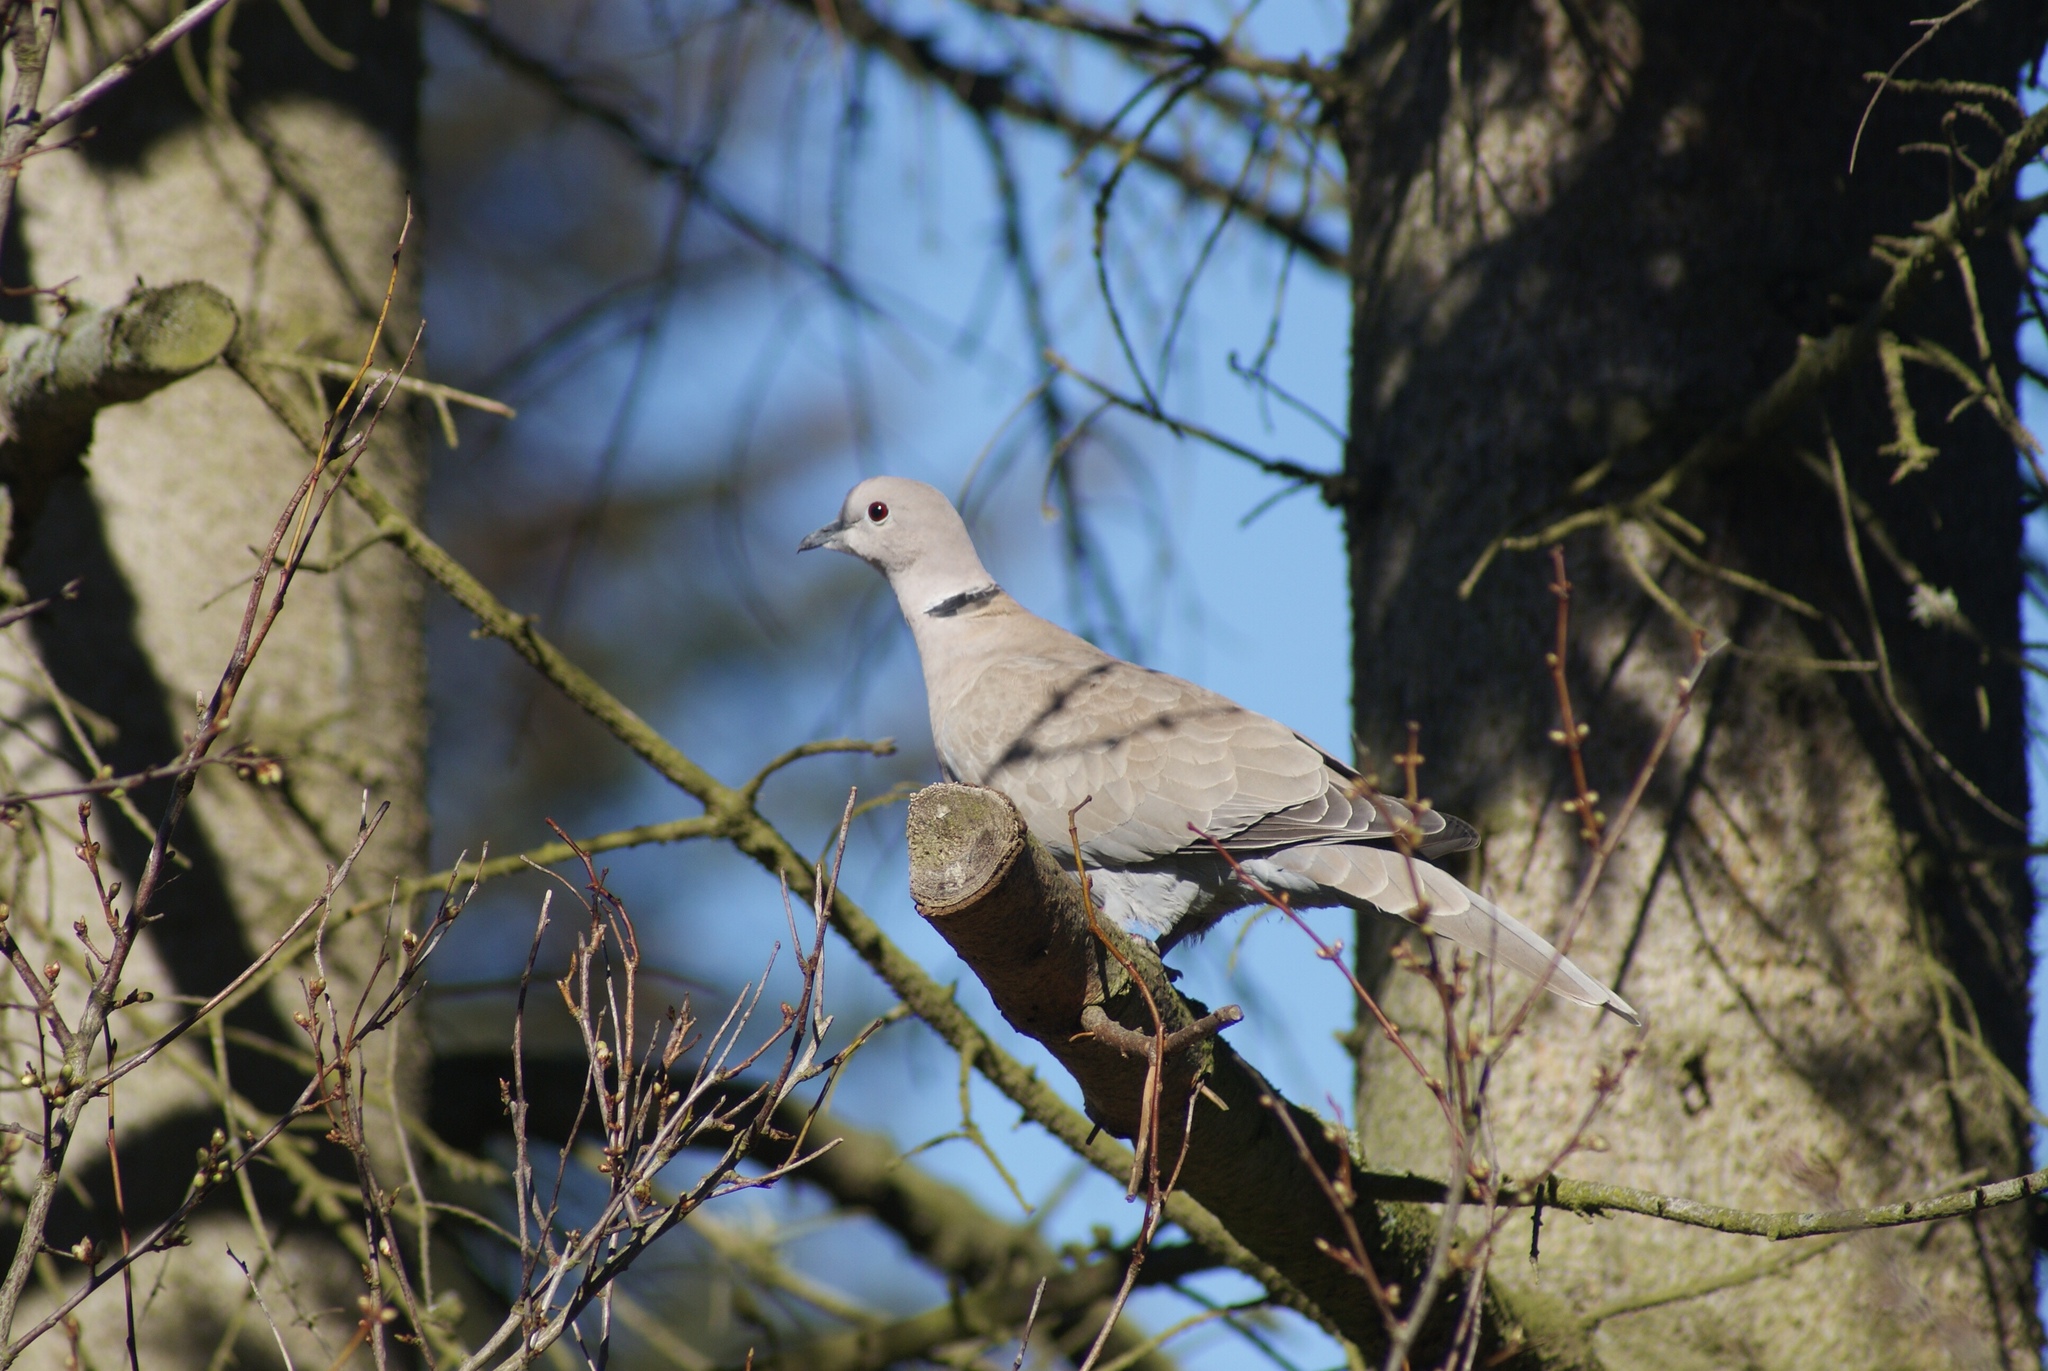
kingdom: Animalia
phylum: Chordata
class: Aves
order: Columbiformes
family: Columbidae
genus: Streptopelia
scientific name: Streptopelia decaocto
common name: Eurasian collared dove
